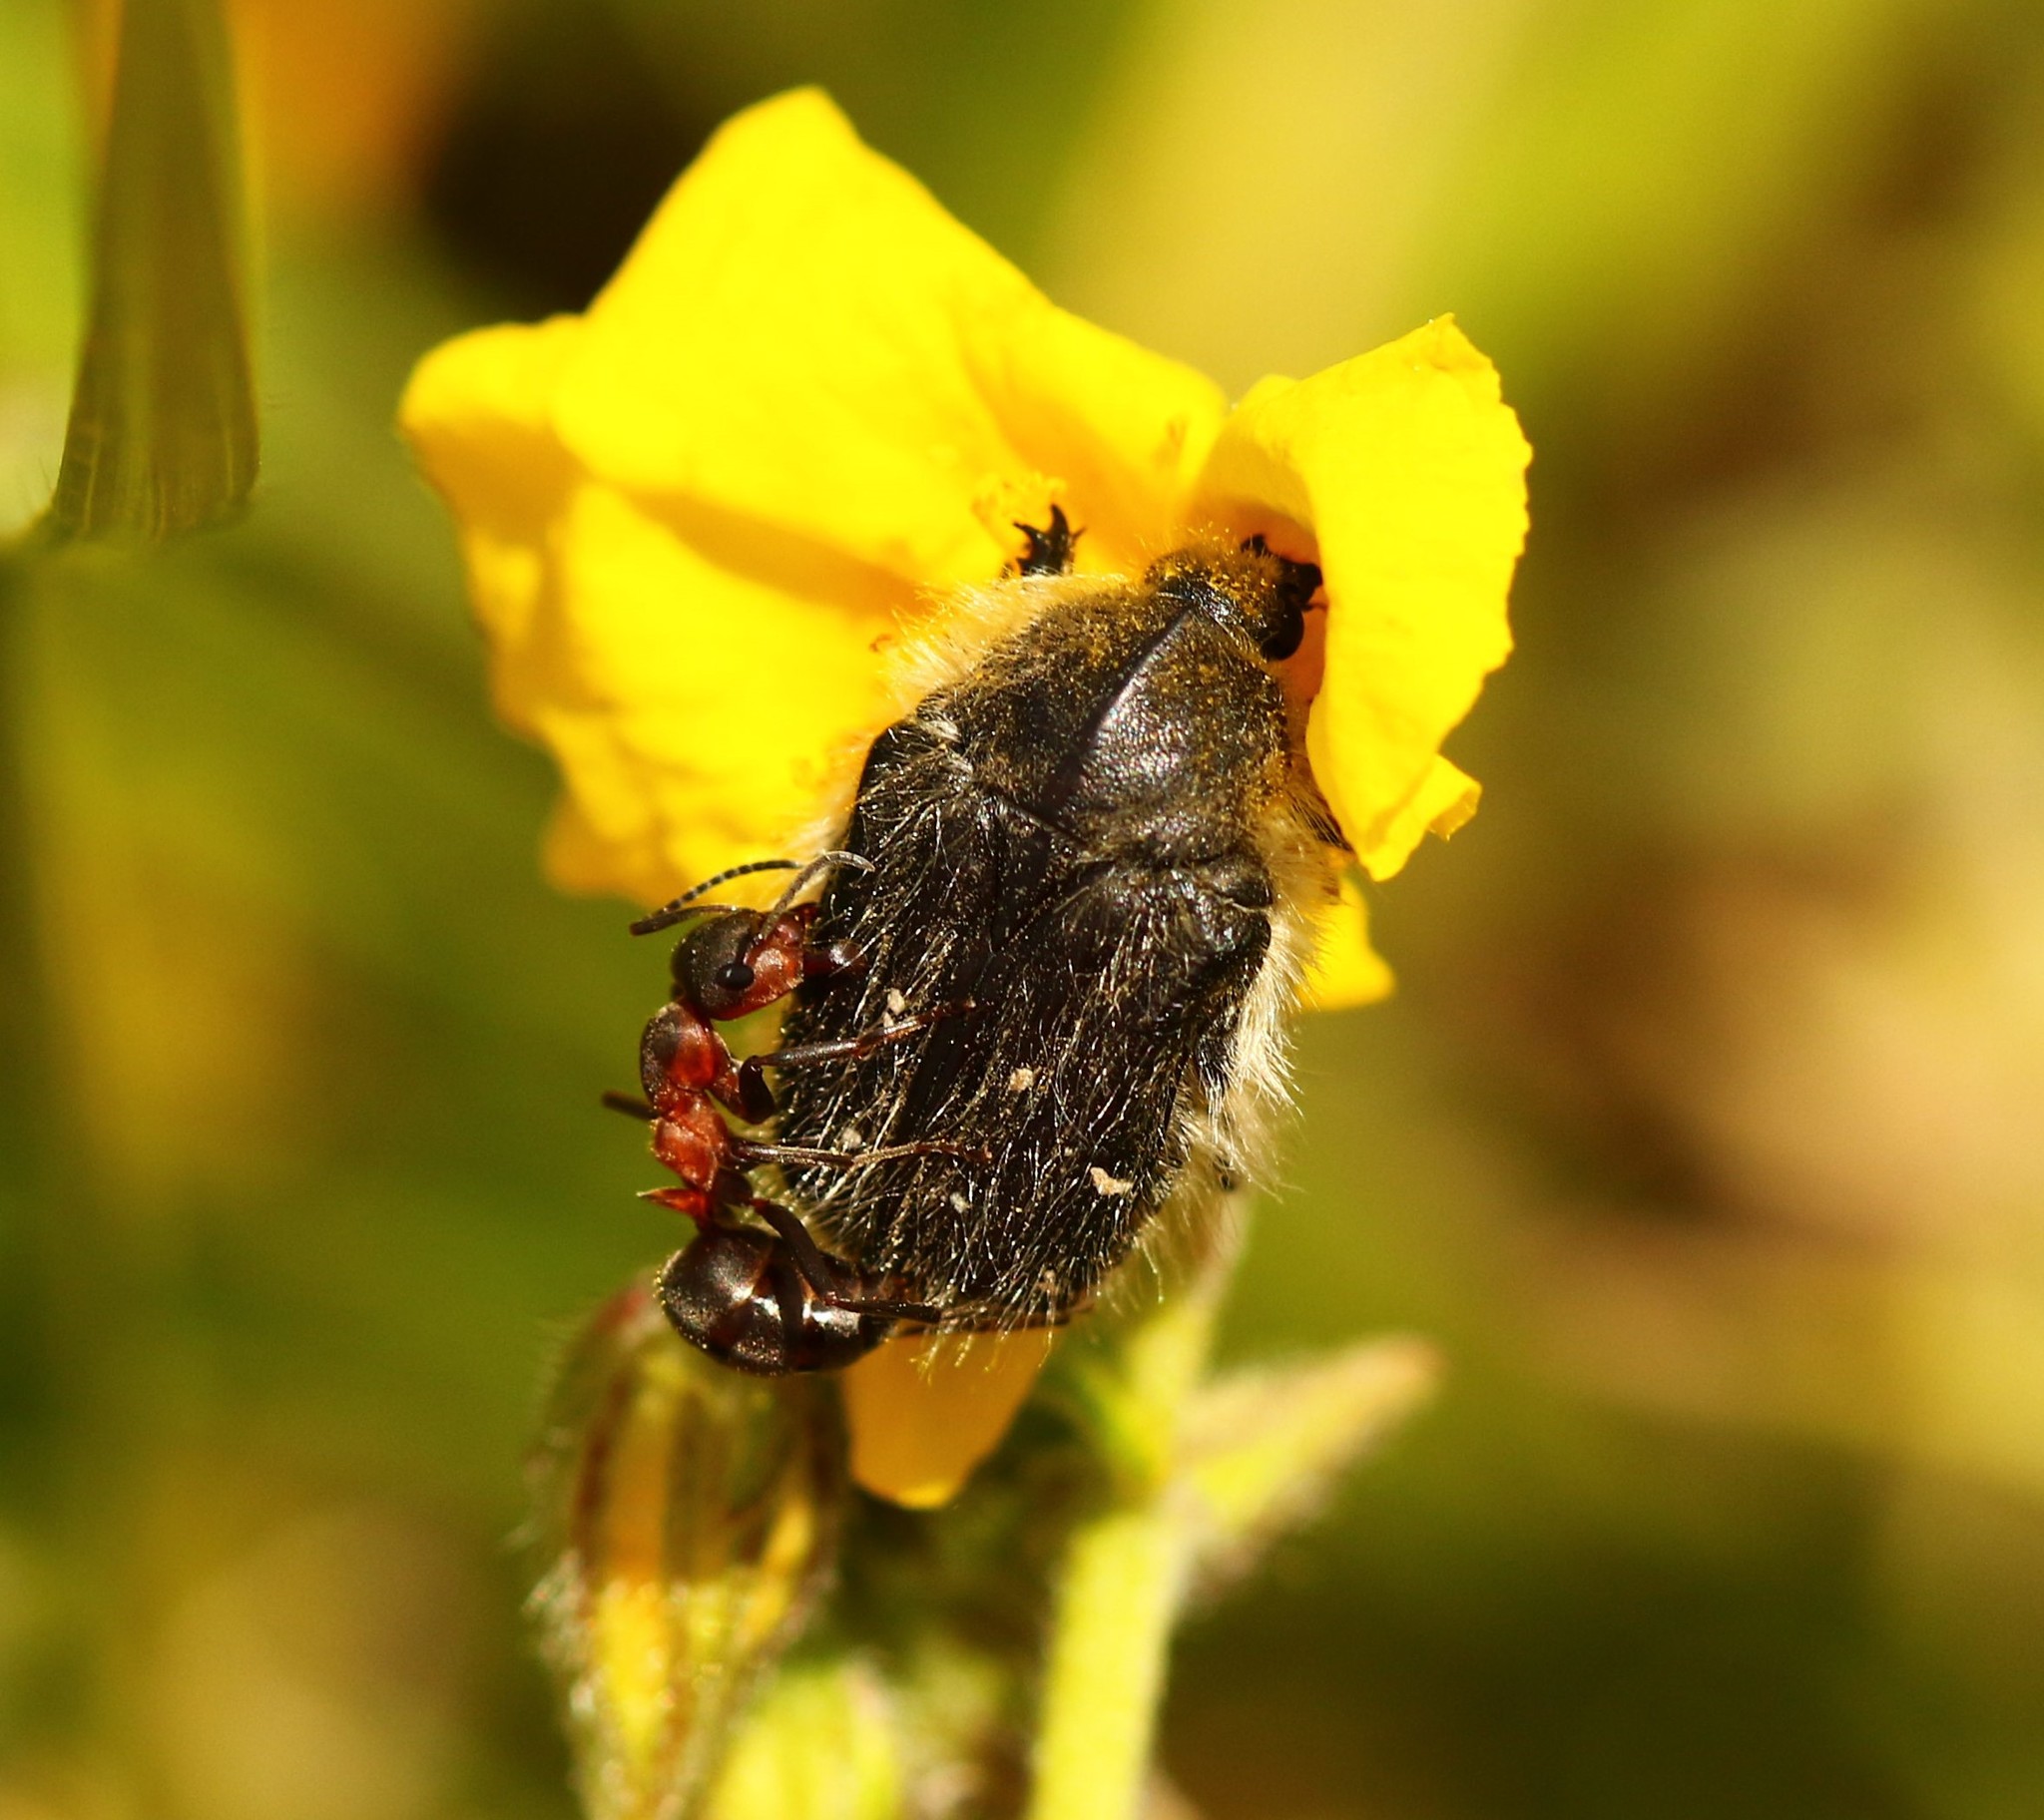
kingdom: Animalia
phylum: Arthropoda
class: Insecta
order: Coleoptera
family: Scarabaeidae
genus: Tropinota
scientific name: Tropinota hirta
